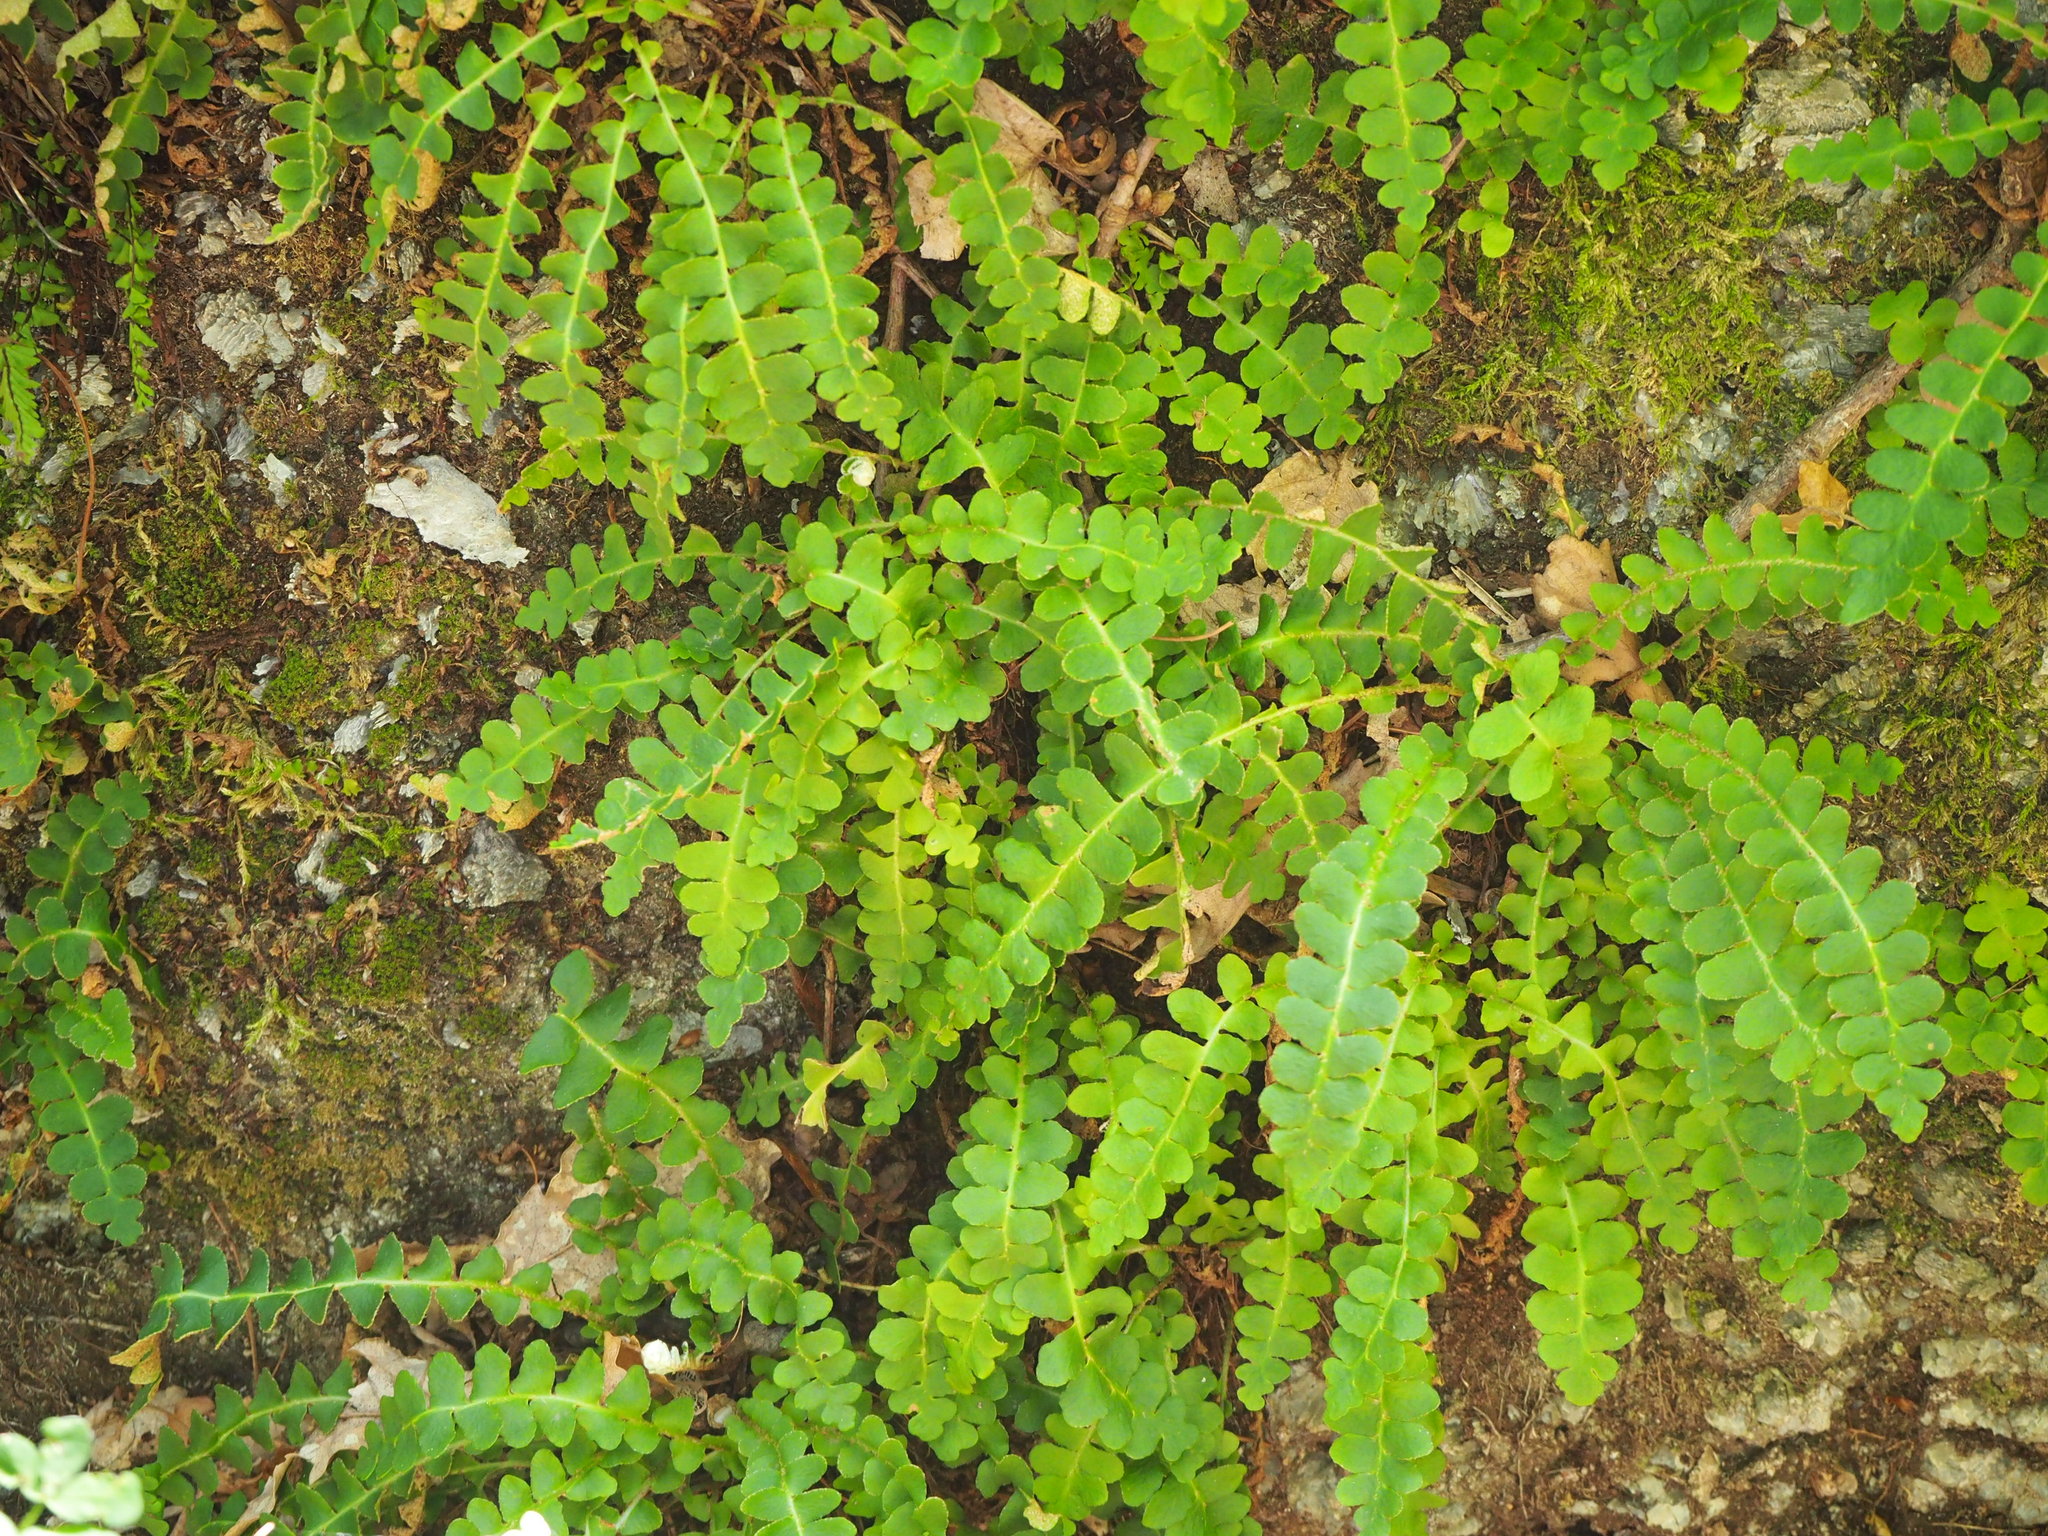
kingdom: Plantae
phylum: Tracheophyta
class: Polypodiopsida
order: Polypodiales
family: Aspleniaceae
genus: Asplenium
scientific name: Asplenium ceterach
